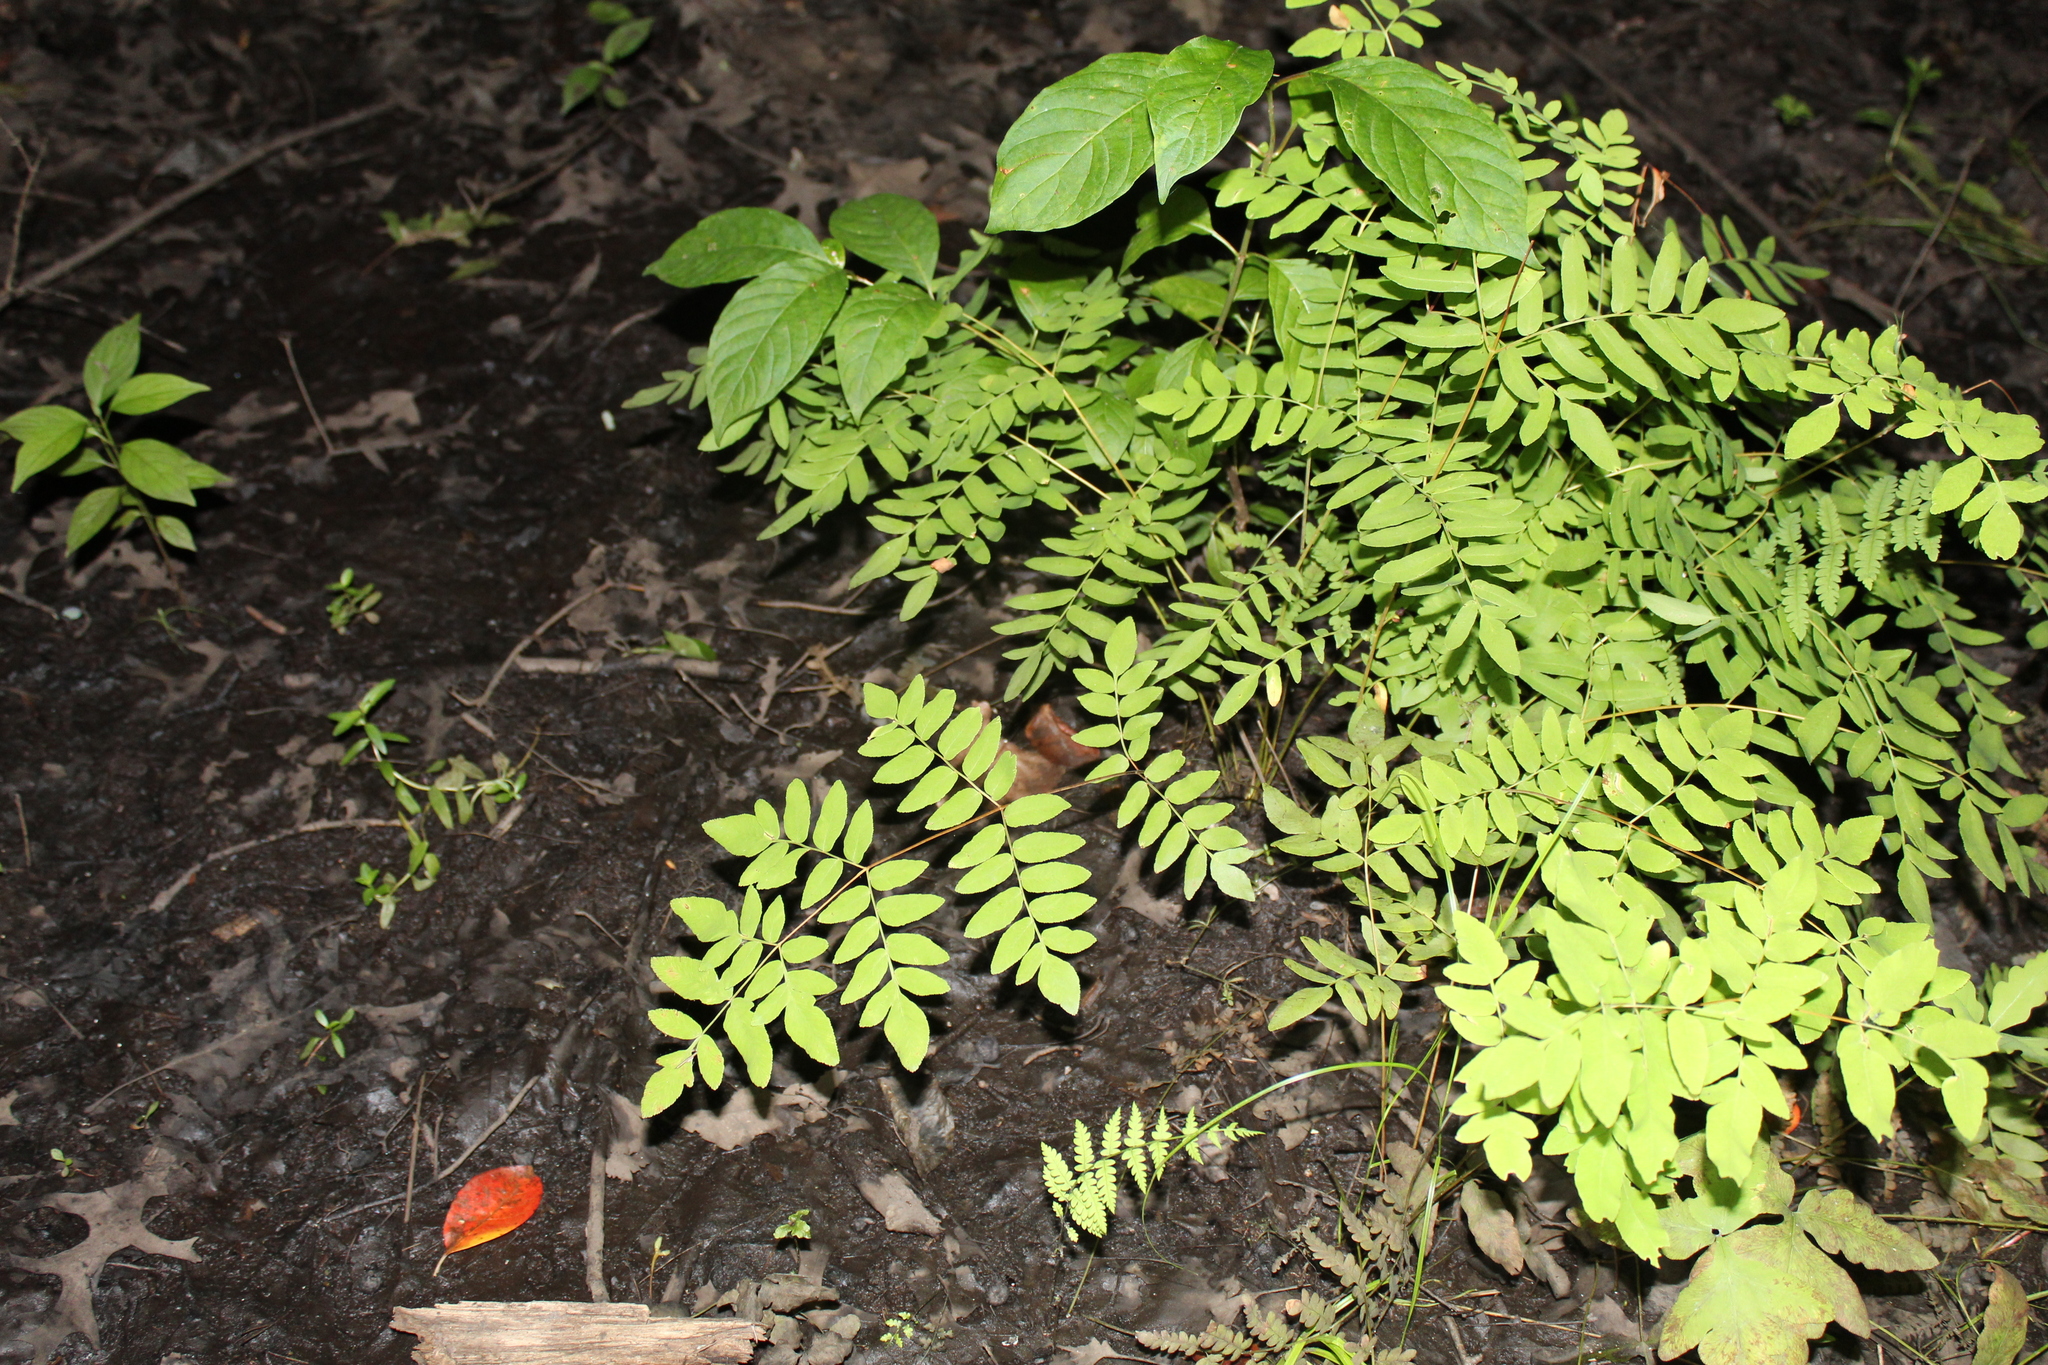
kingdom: Plantae
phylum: Tracheophyta
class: Polypodiopsida
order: Osmundales
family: Osmundaceae
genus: Osmunda
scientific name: Osmunda spectabilis
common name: American royal fern
